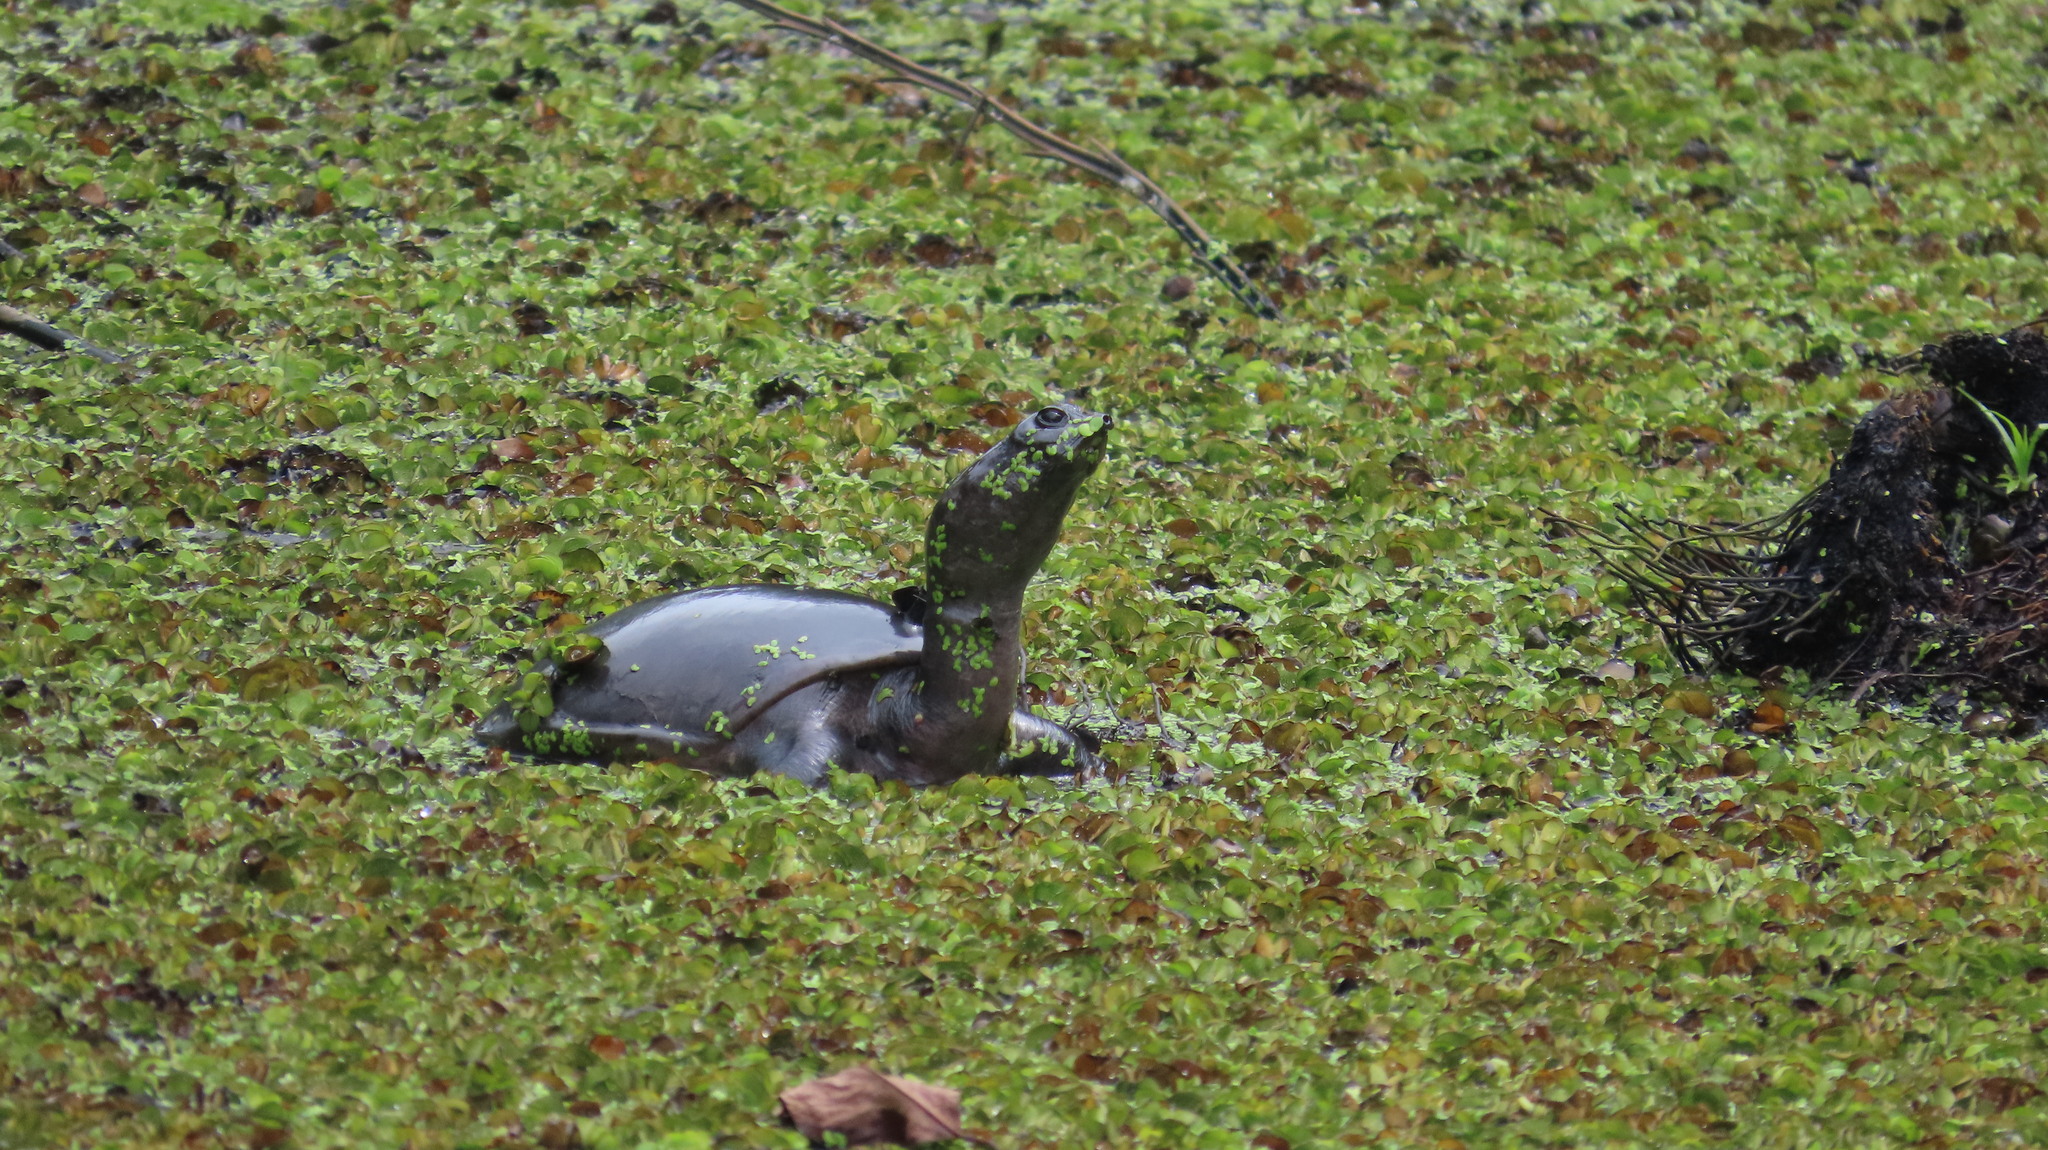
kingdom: Animalia
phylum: Chordata
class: Testudines
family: Trionychidae
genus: Lissemys
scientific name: Lissemys punctata
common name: Indian flap-shelled turtle
